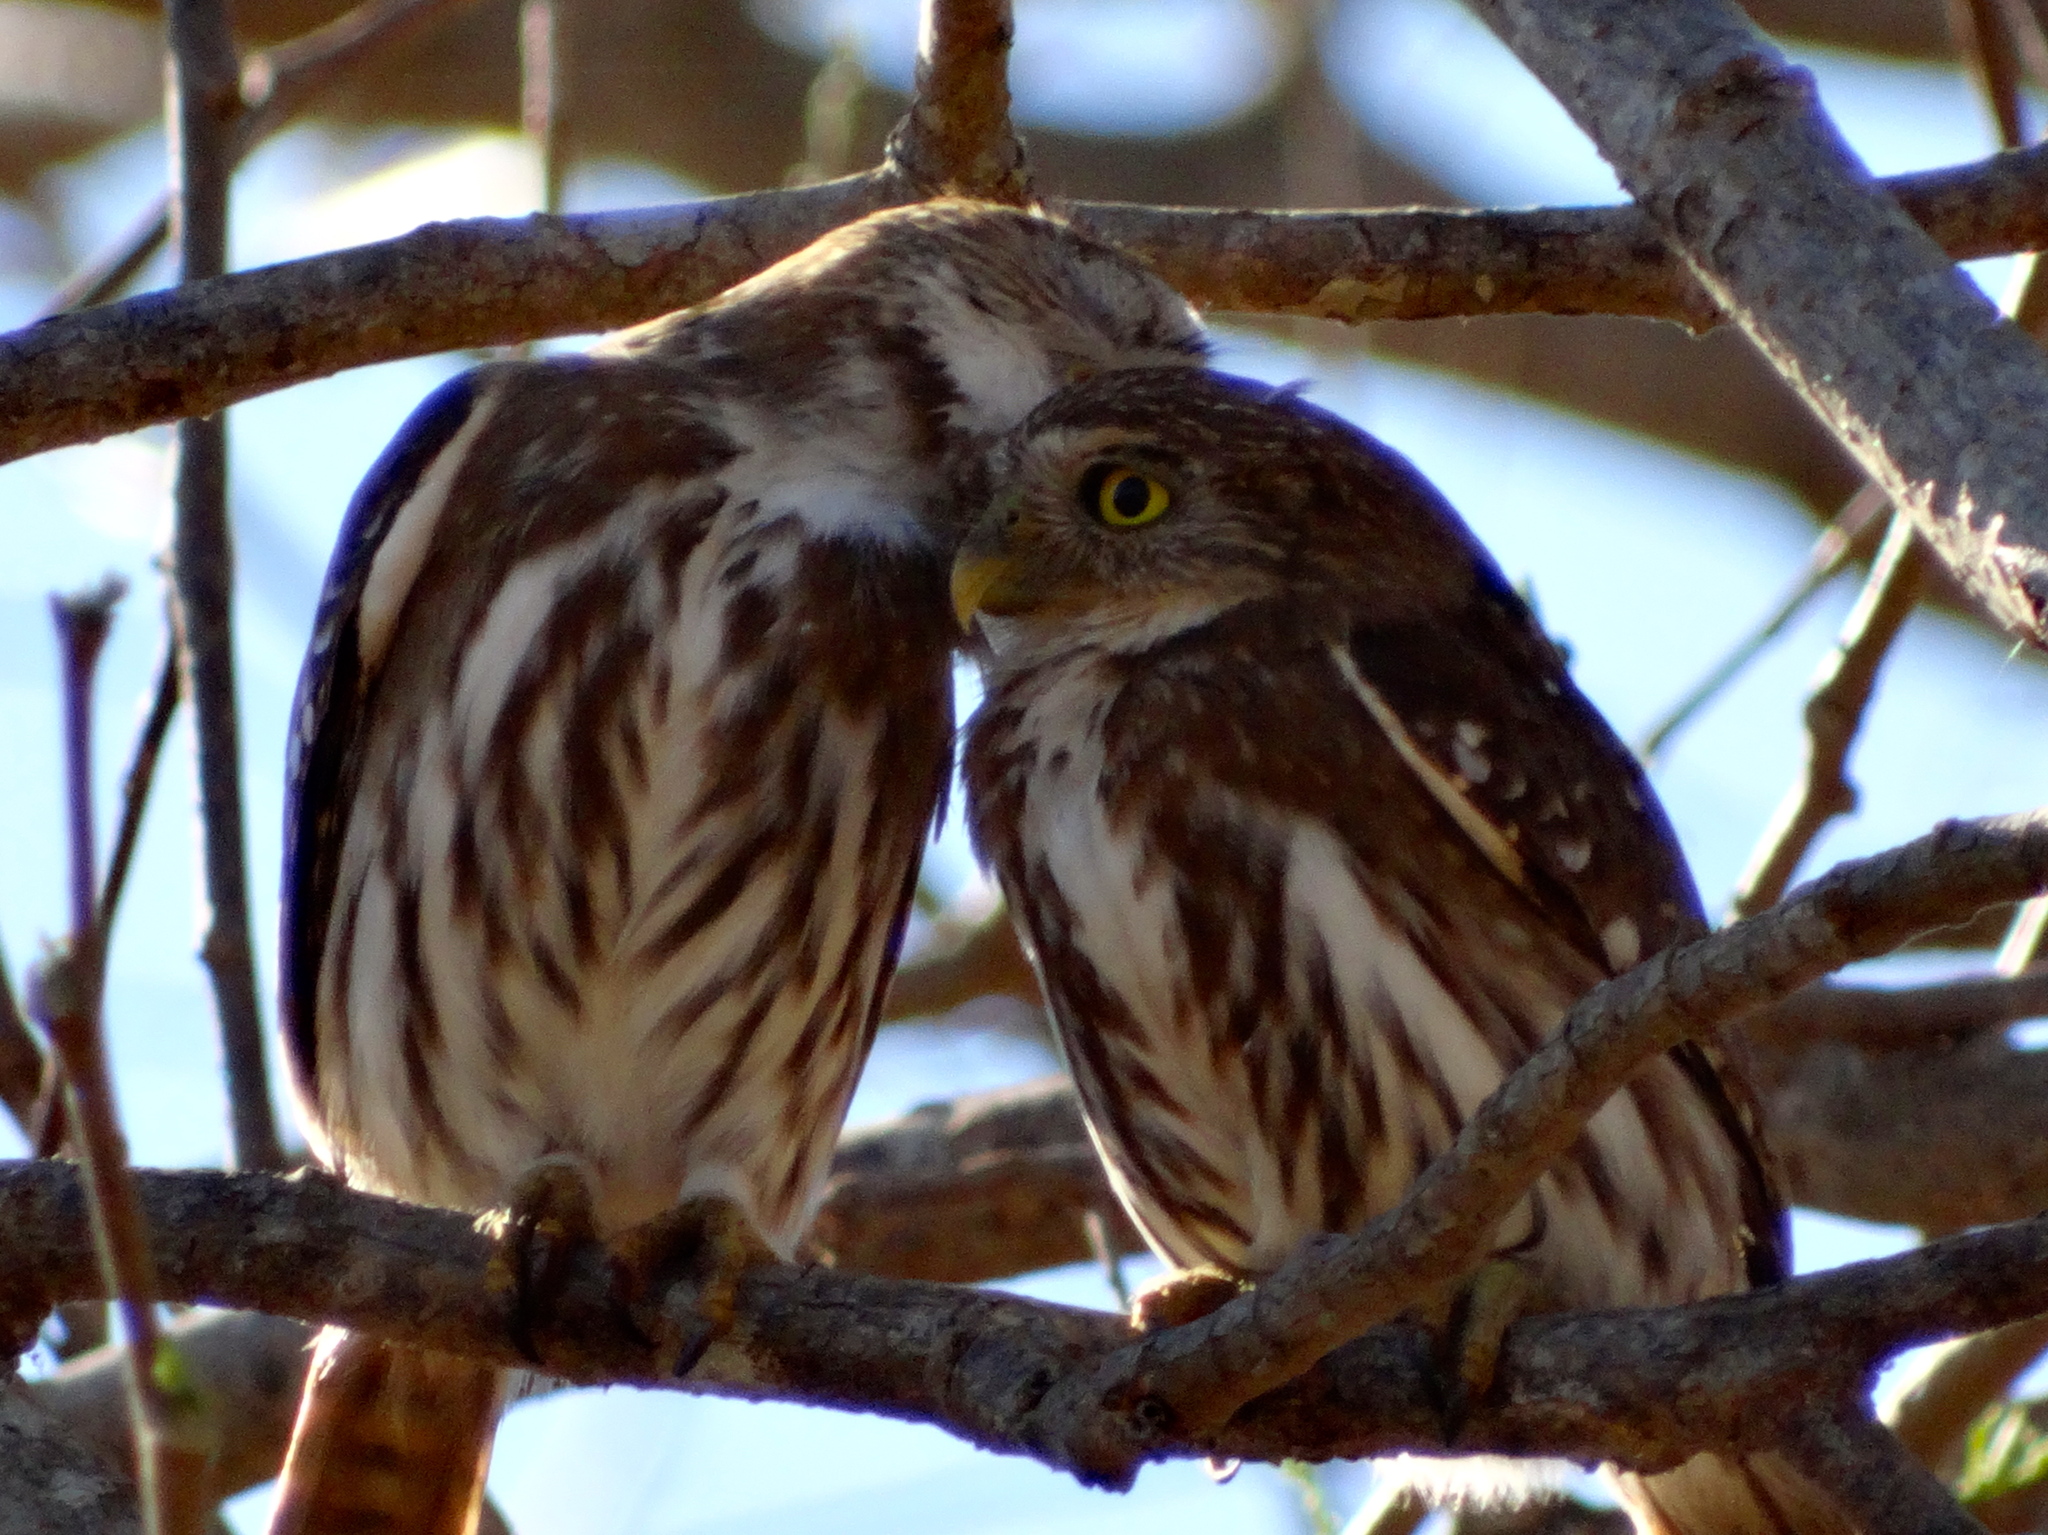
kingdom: Animalia
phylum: Chordata
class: Aves
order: Strigiformes
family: Strigidae
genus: Glaucidium
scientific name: Glaucidium brasilianum
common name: Ferruginous pygmy-owl
